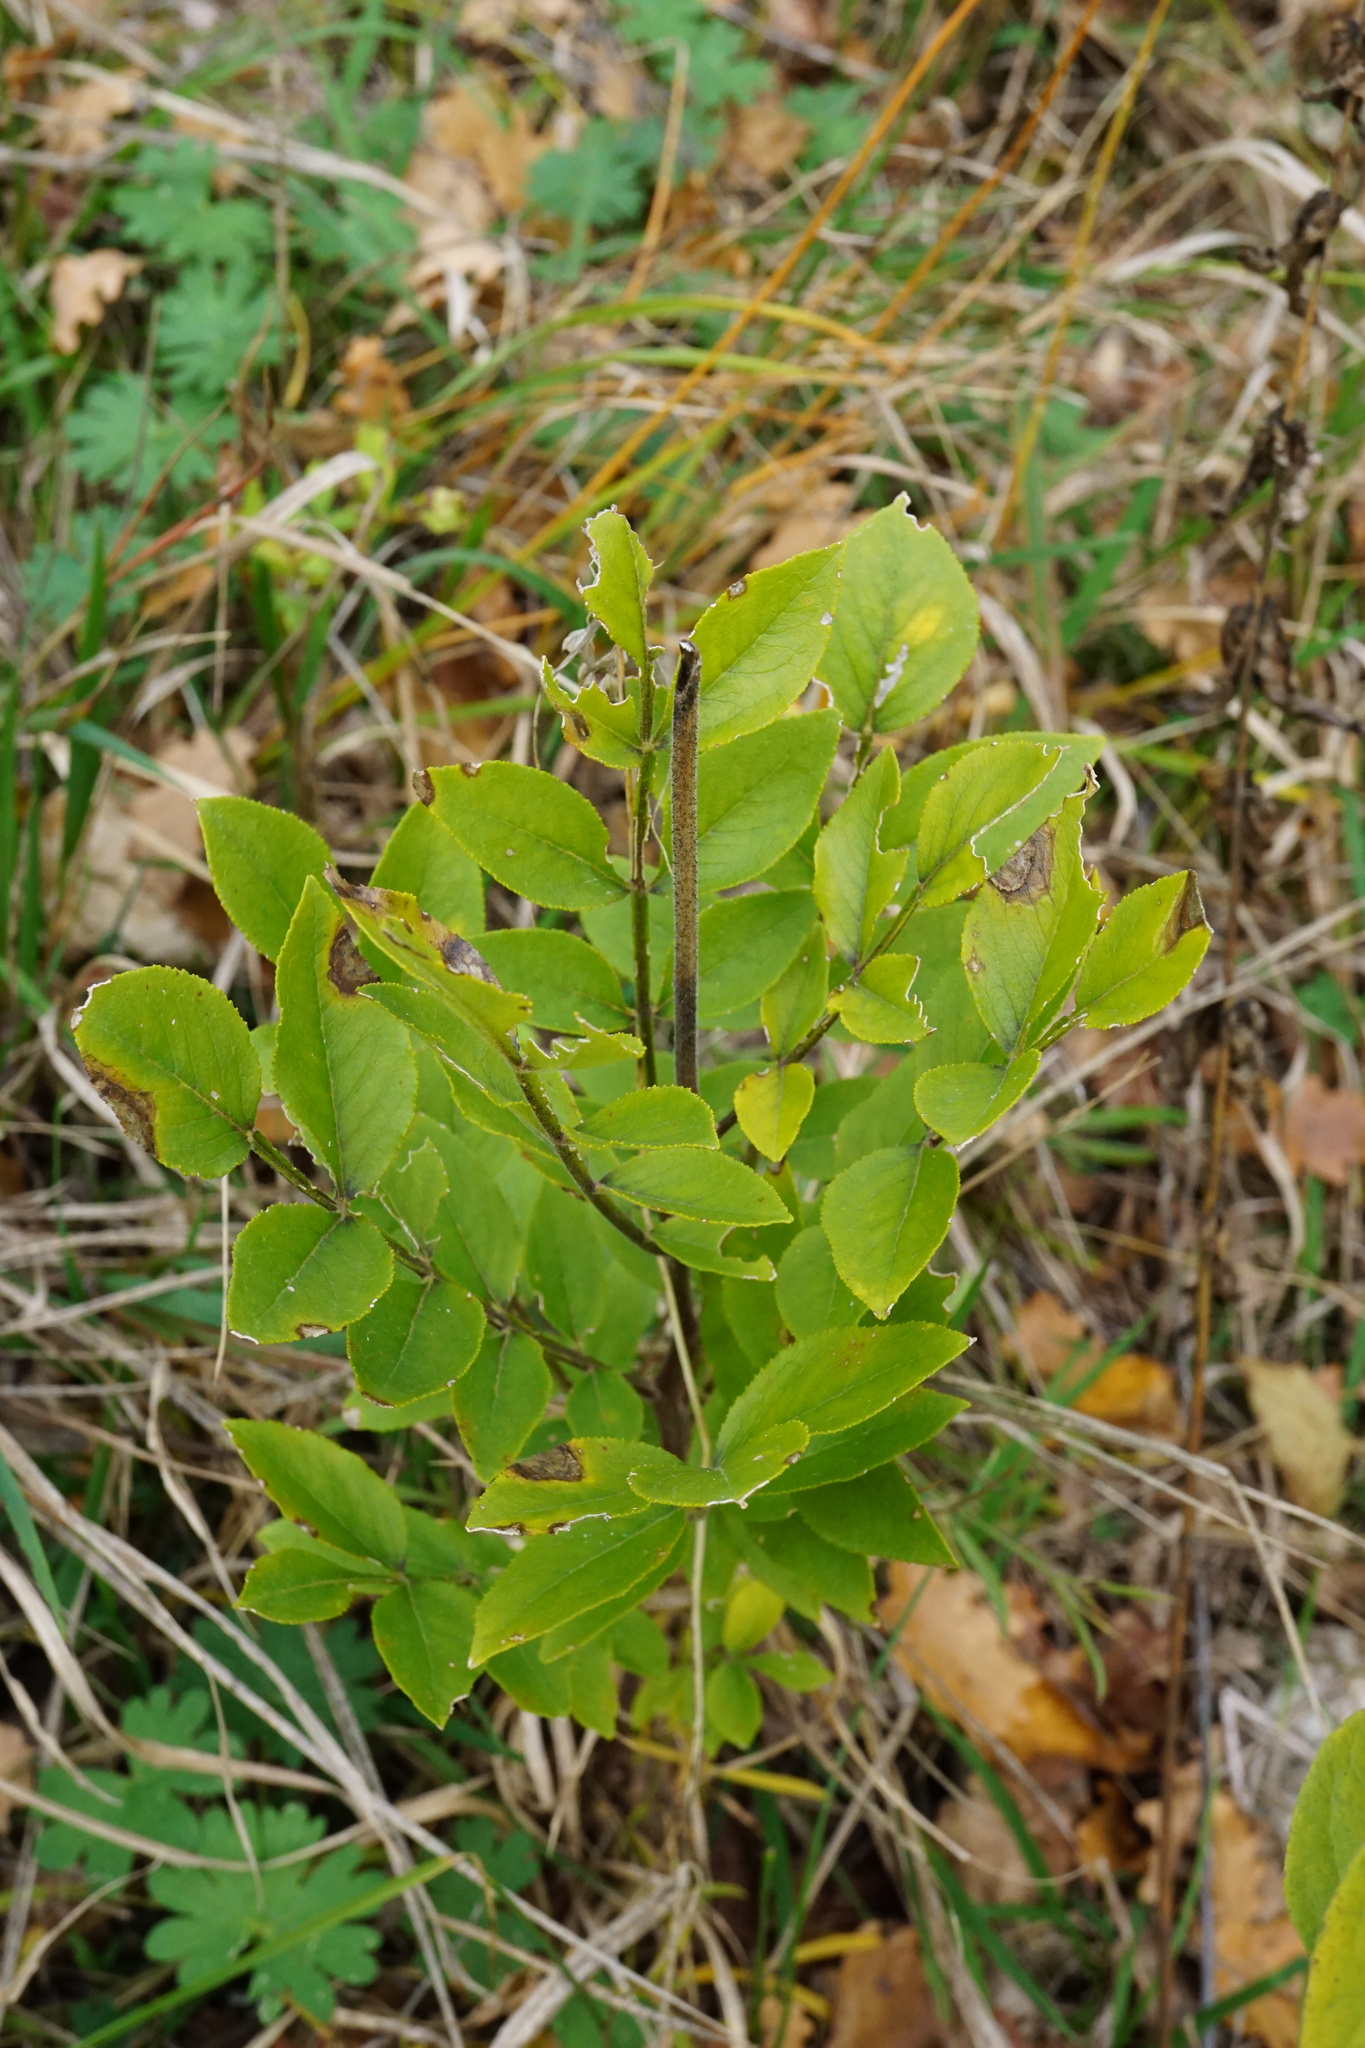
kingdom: Plantae
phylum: Tracheophyta
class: Magnoliopsida
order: Sapindales
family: Rutaceae
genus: Dictamnus
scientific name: Dictamnus albus
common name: Gasplant
